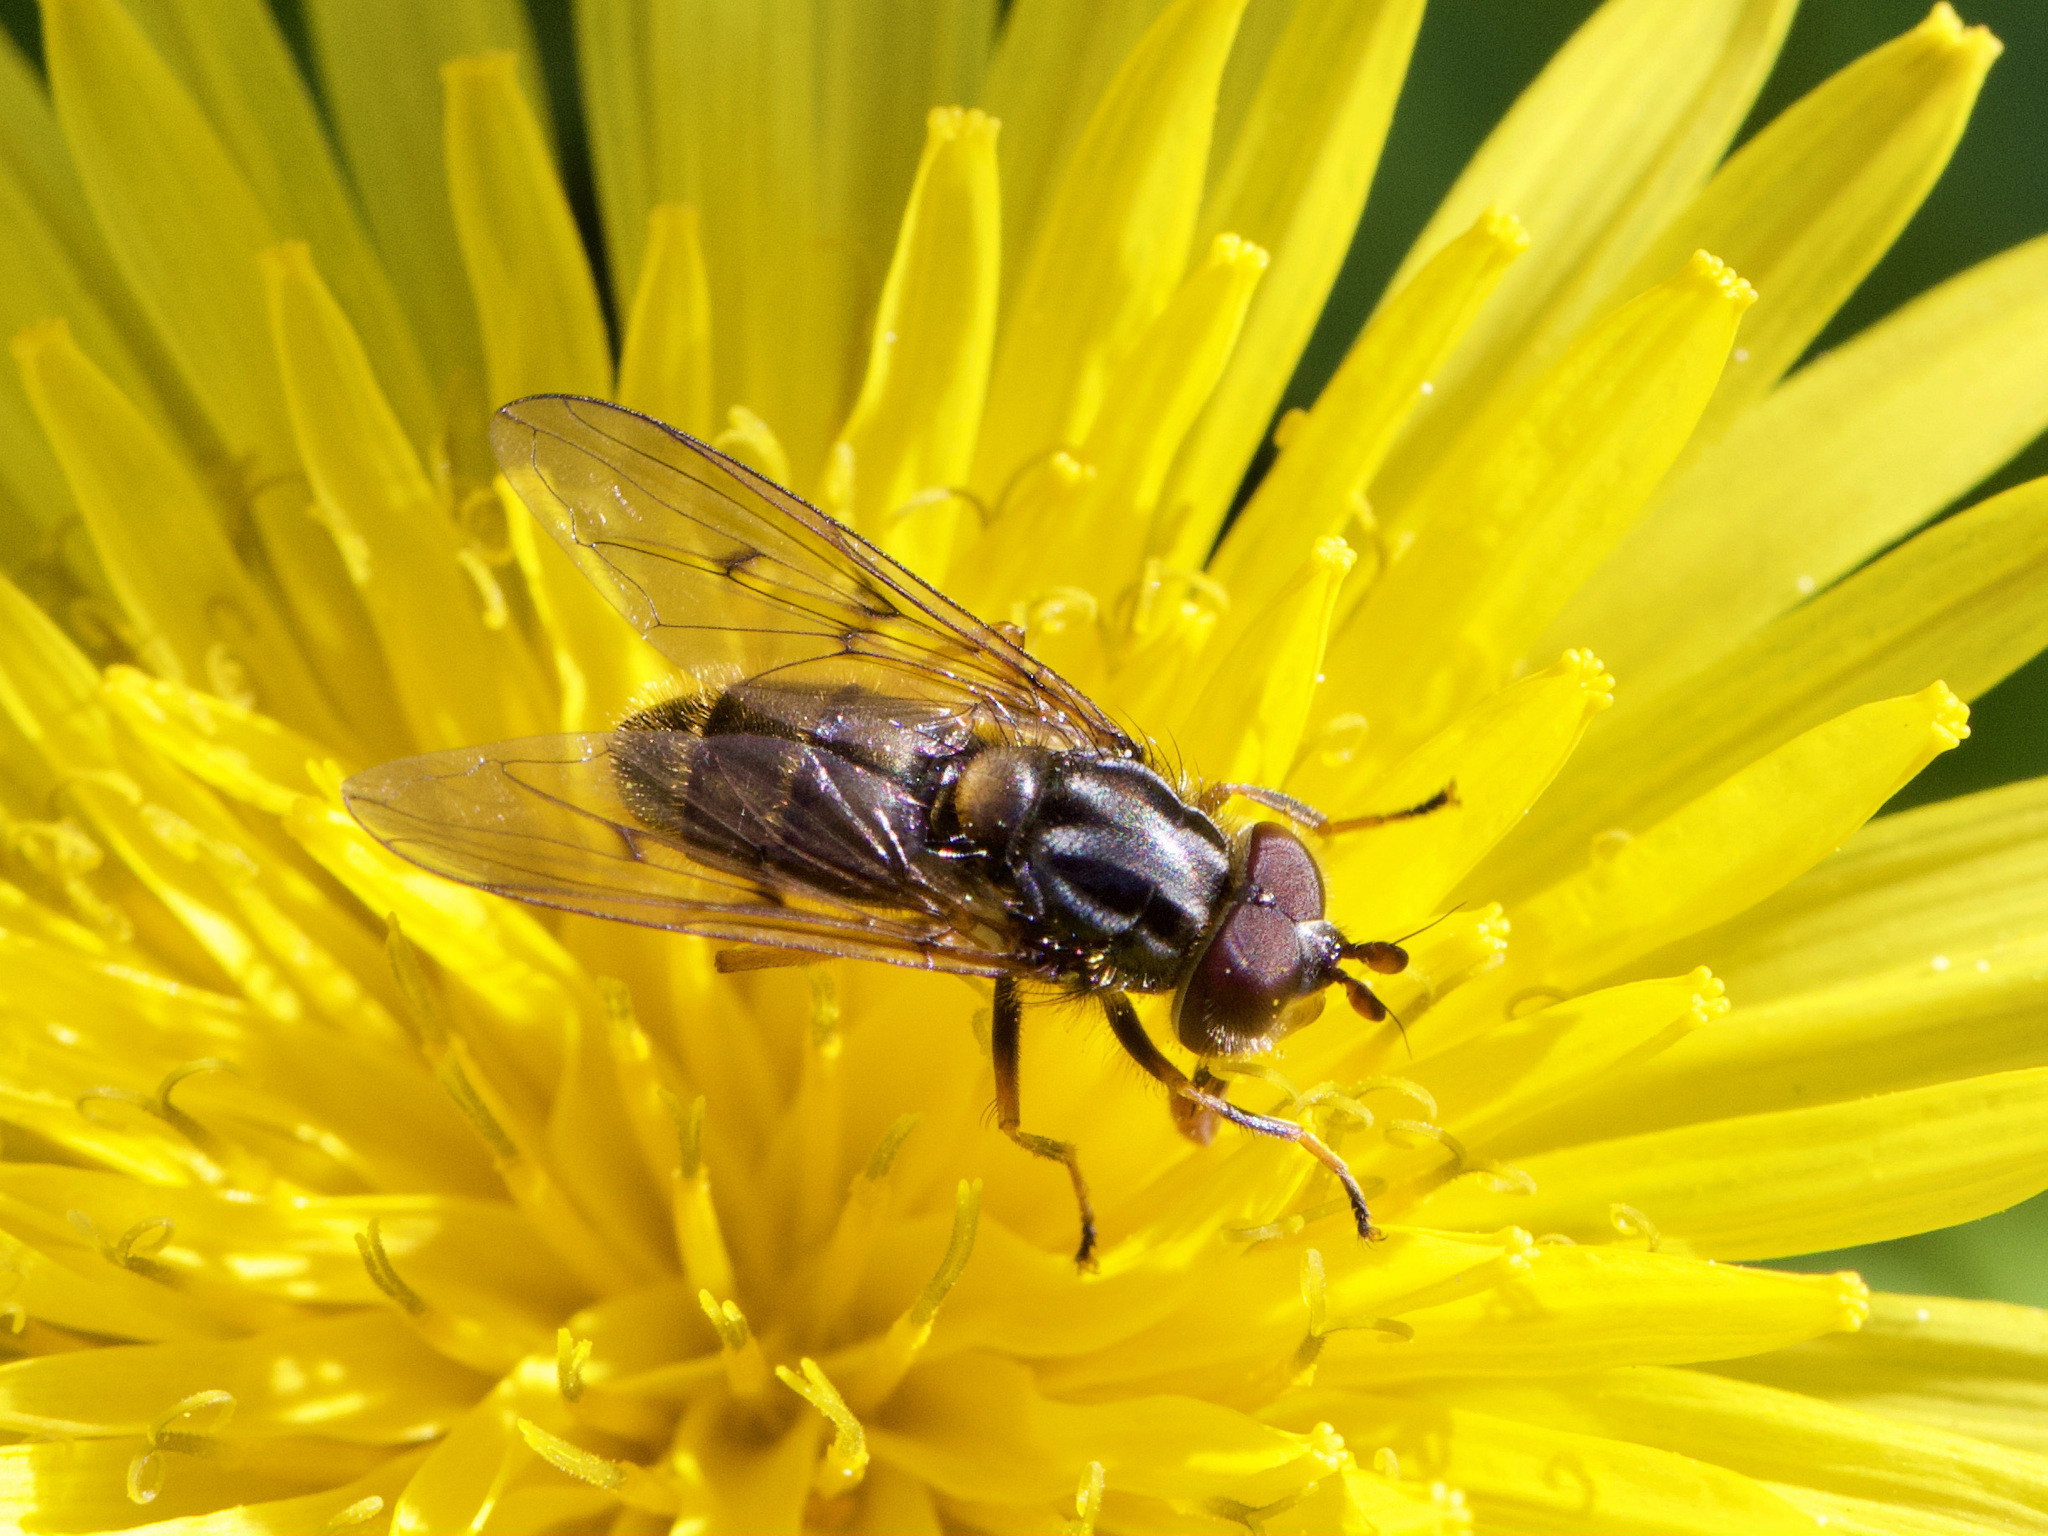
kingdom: Animalia
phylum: Arthropoda
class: Insecta
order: Diptera
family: Syrphidae
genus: Ferdinandea
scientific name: Ferdinandea cuprea
